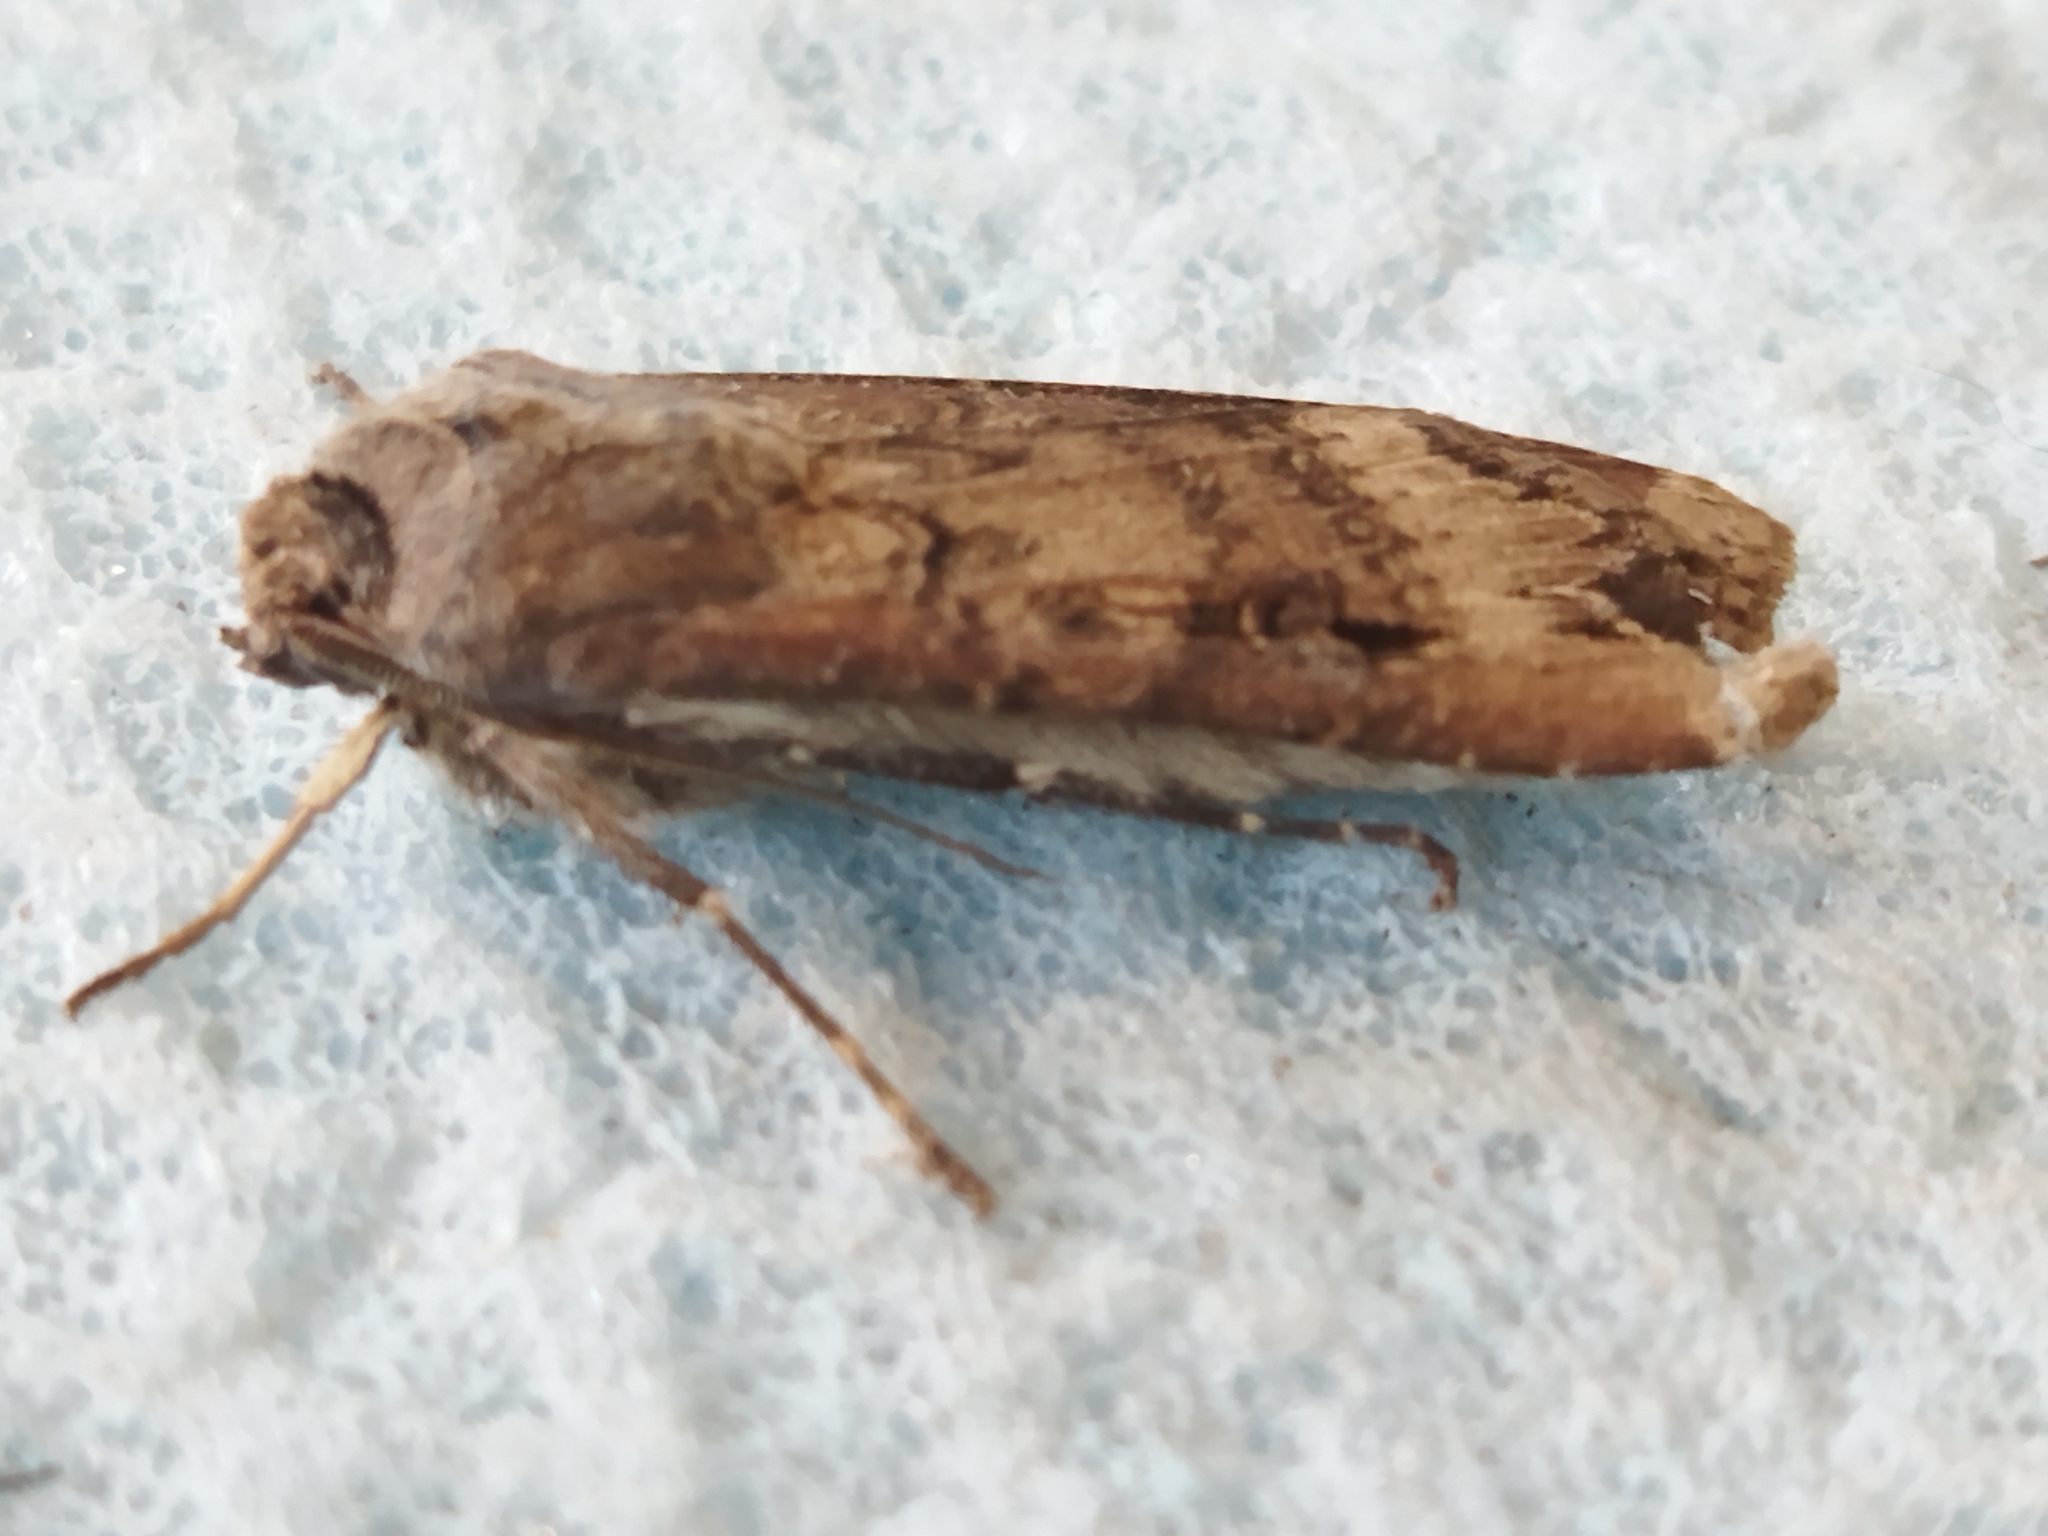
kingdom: Animalia
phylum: Arthropoda
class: Insecta
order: Lepidoptera
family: Noctuidae
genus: Agrotis
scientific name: Agrotis ipsilon
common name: Dark sword-grass
